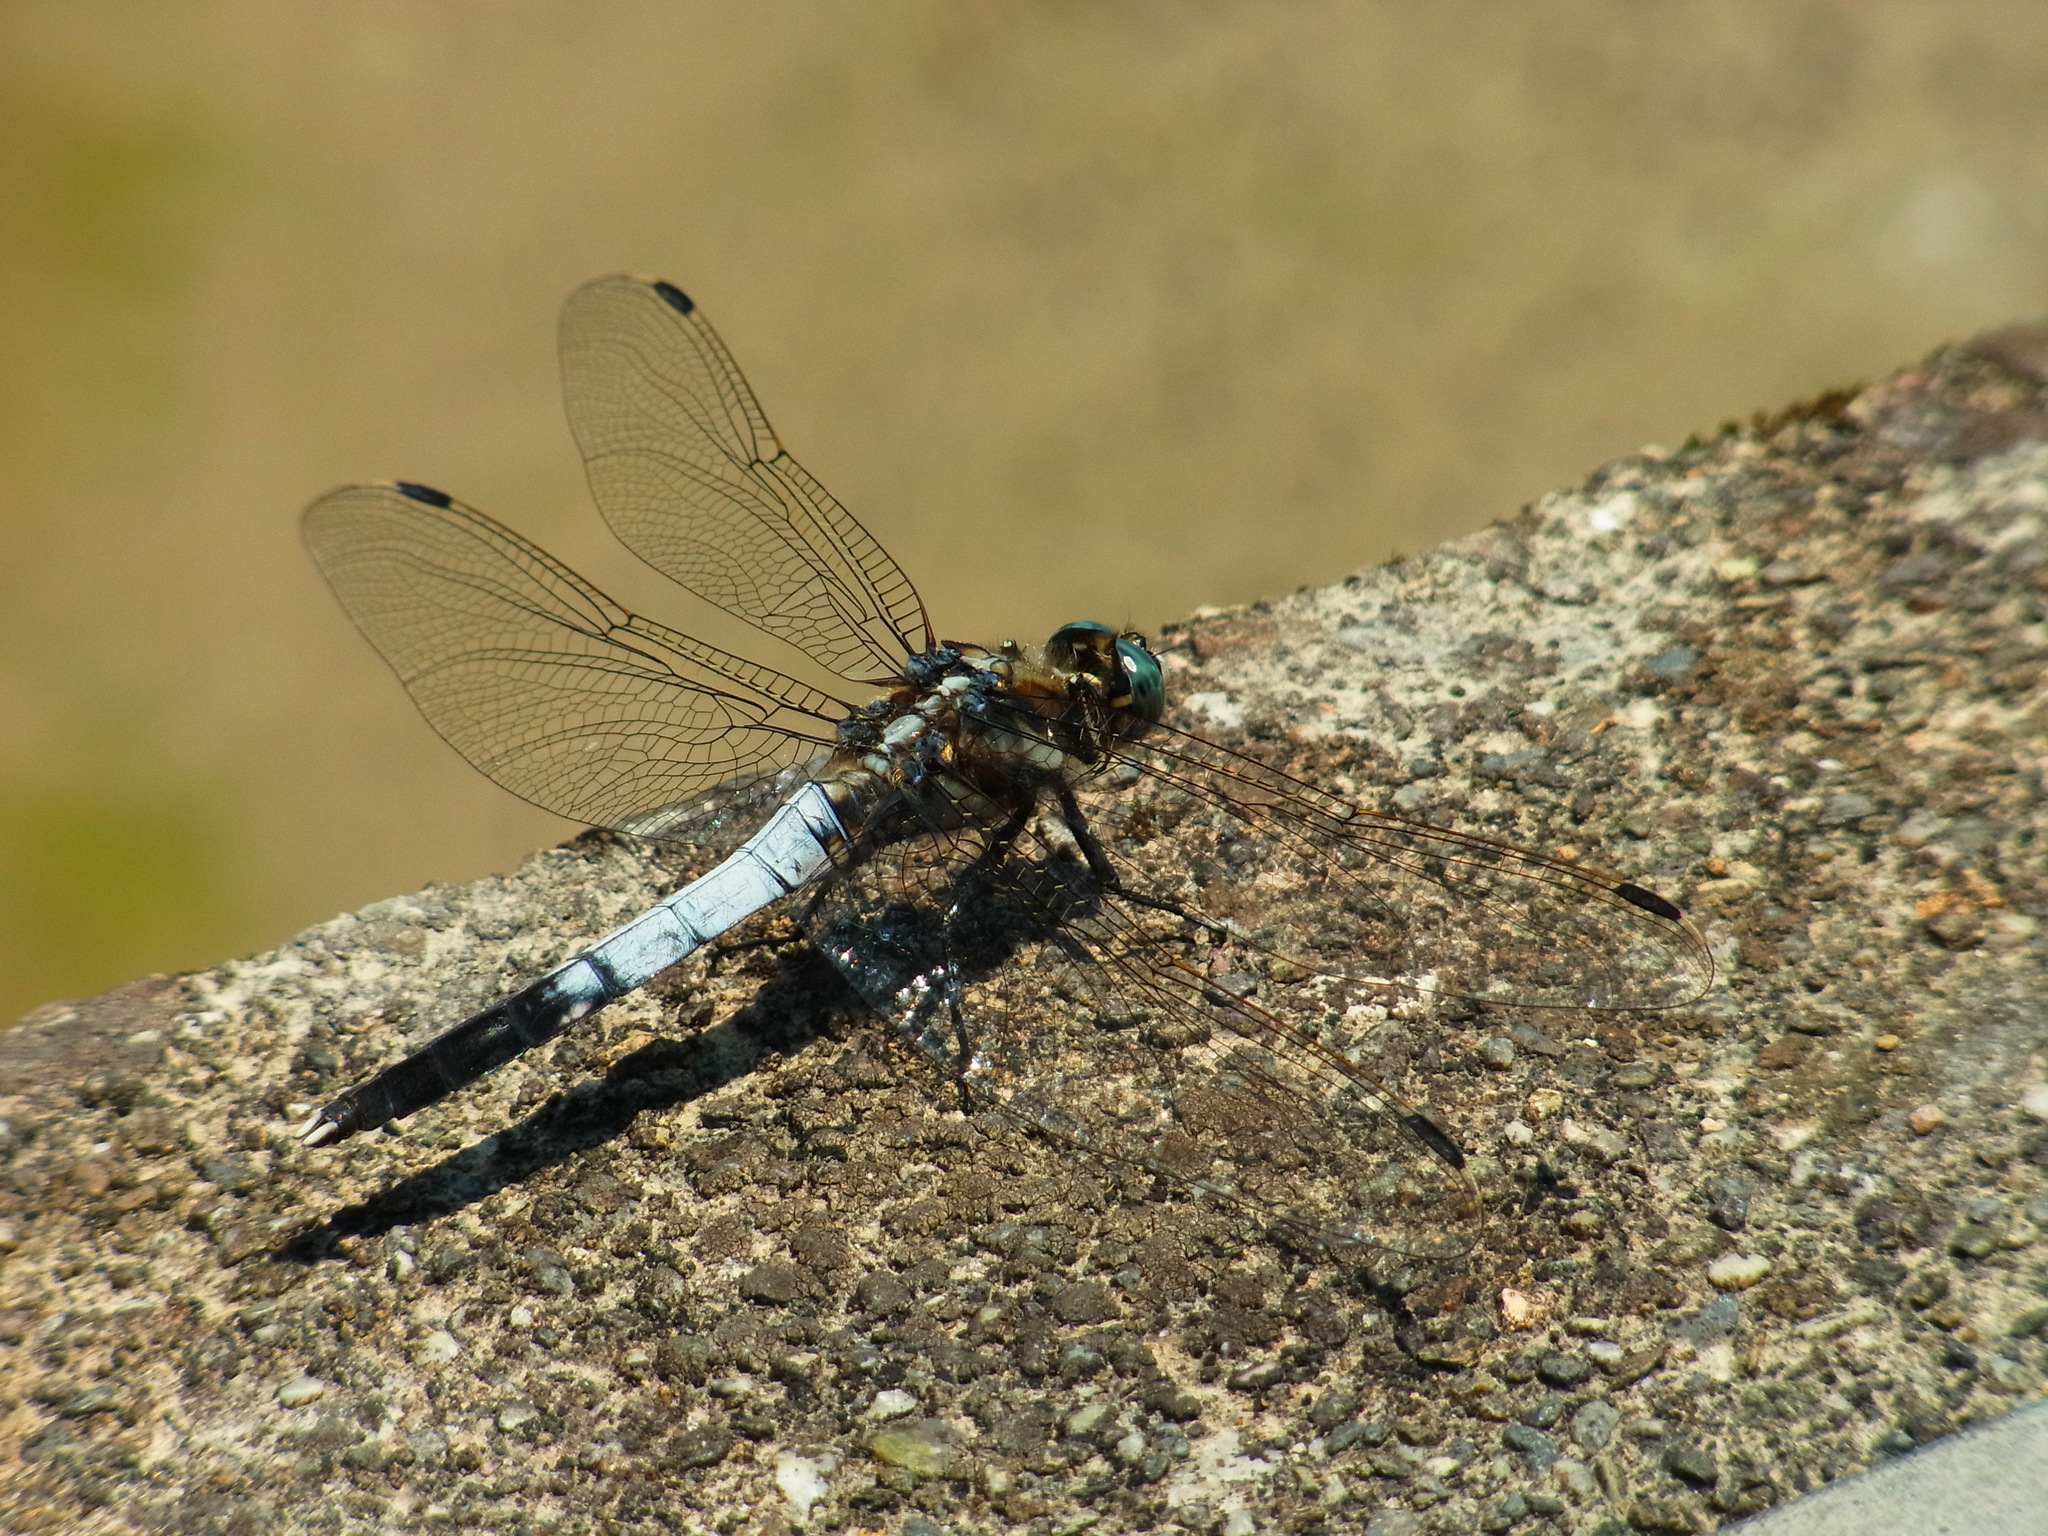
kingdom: Animalia
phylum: Arthropoda
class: Insecta
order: Odonata
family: Libellulidae
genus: Orthetrum
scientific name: Orthetrum albistylum
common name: White-tailed skimmer
